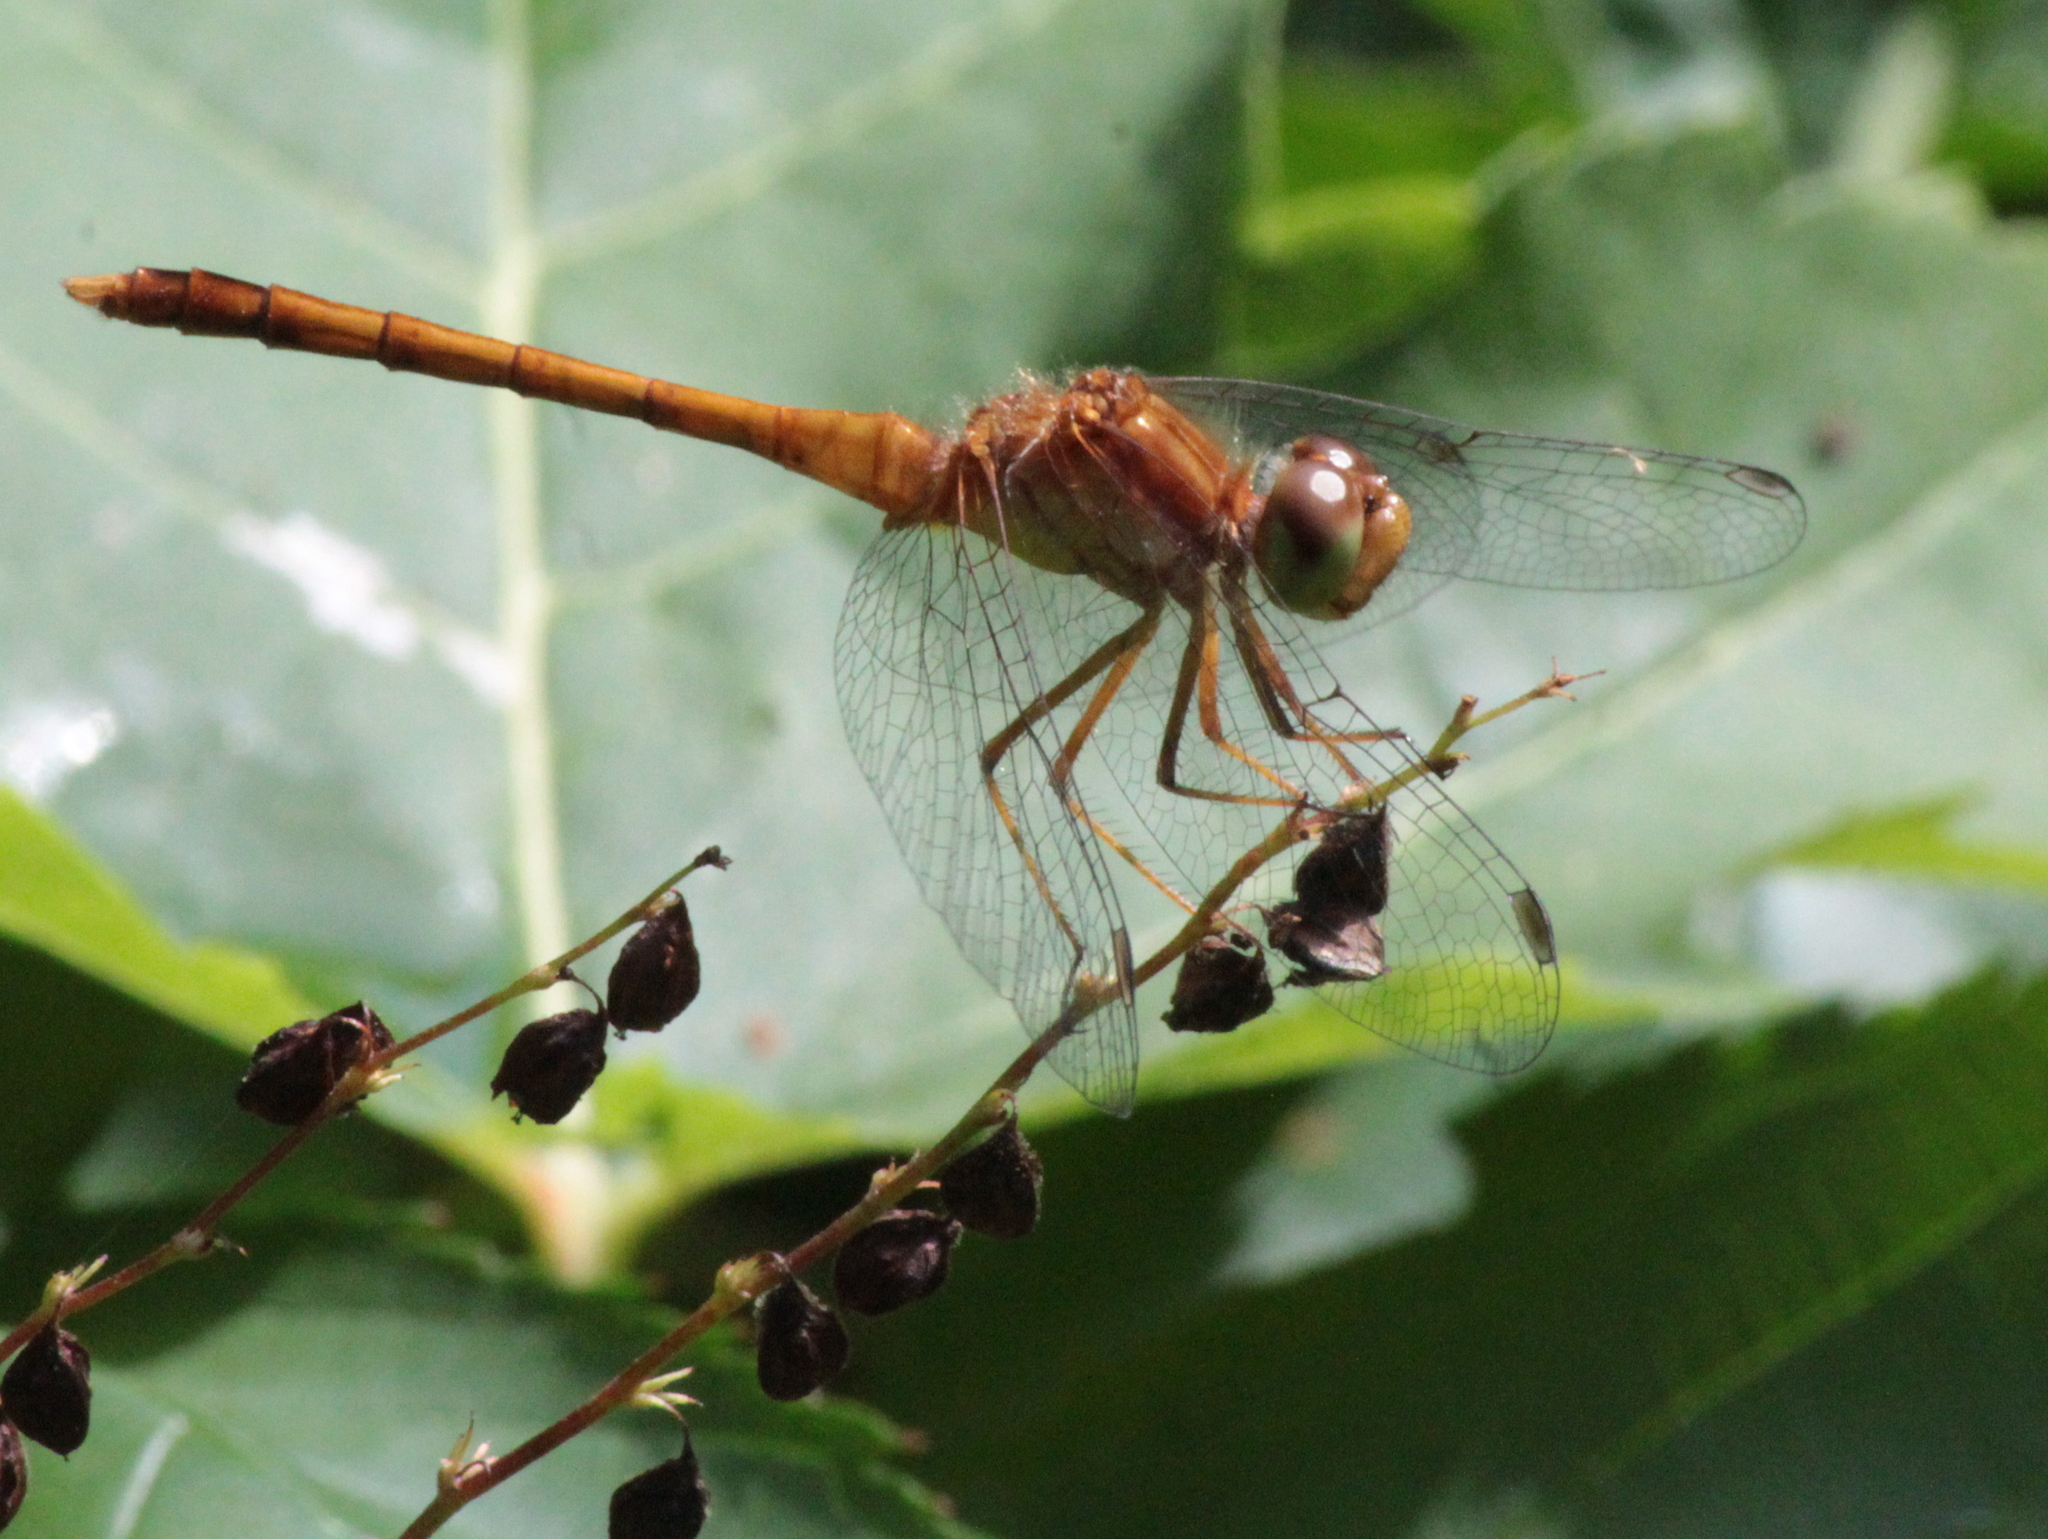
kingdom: Animalia
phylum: Arthropoda
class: Insecta
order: Odonata
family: Libellulidae
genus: Sympetrum
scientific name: Sympetrum vicinum
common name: Autumn meadowhawk
